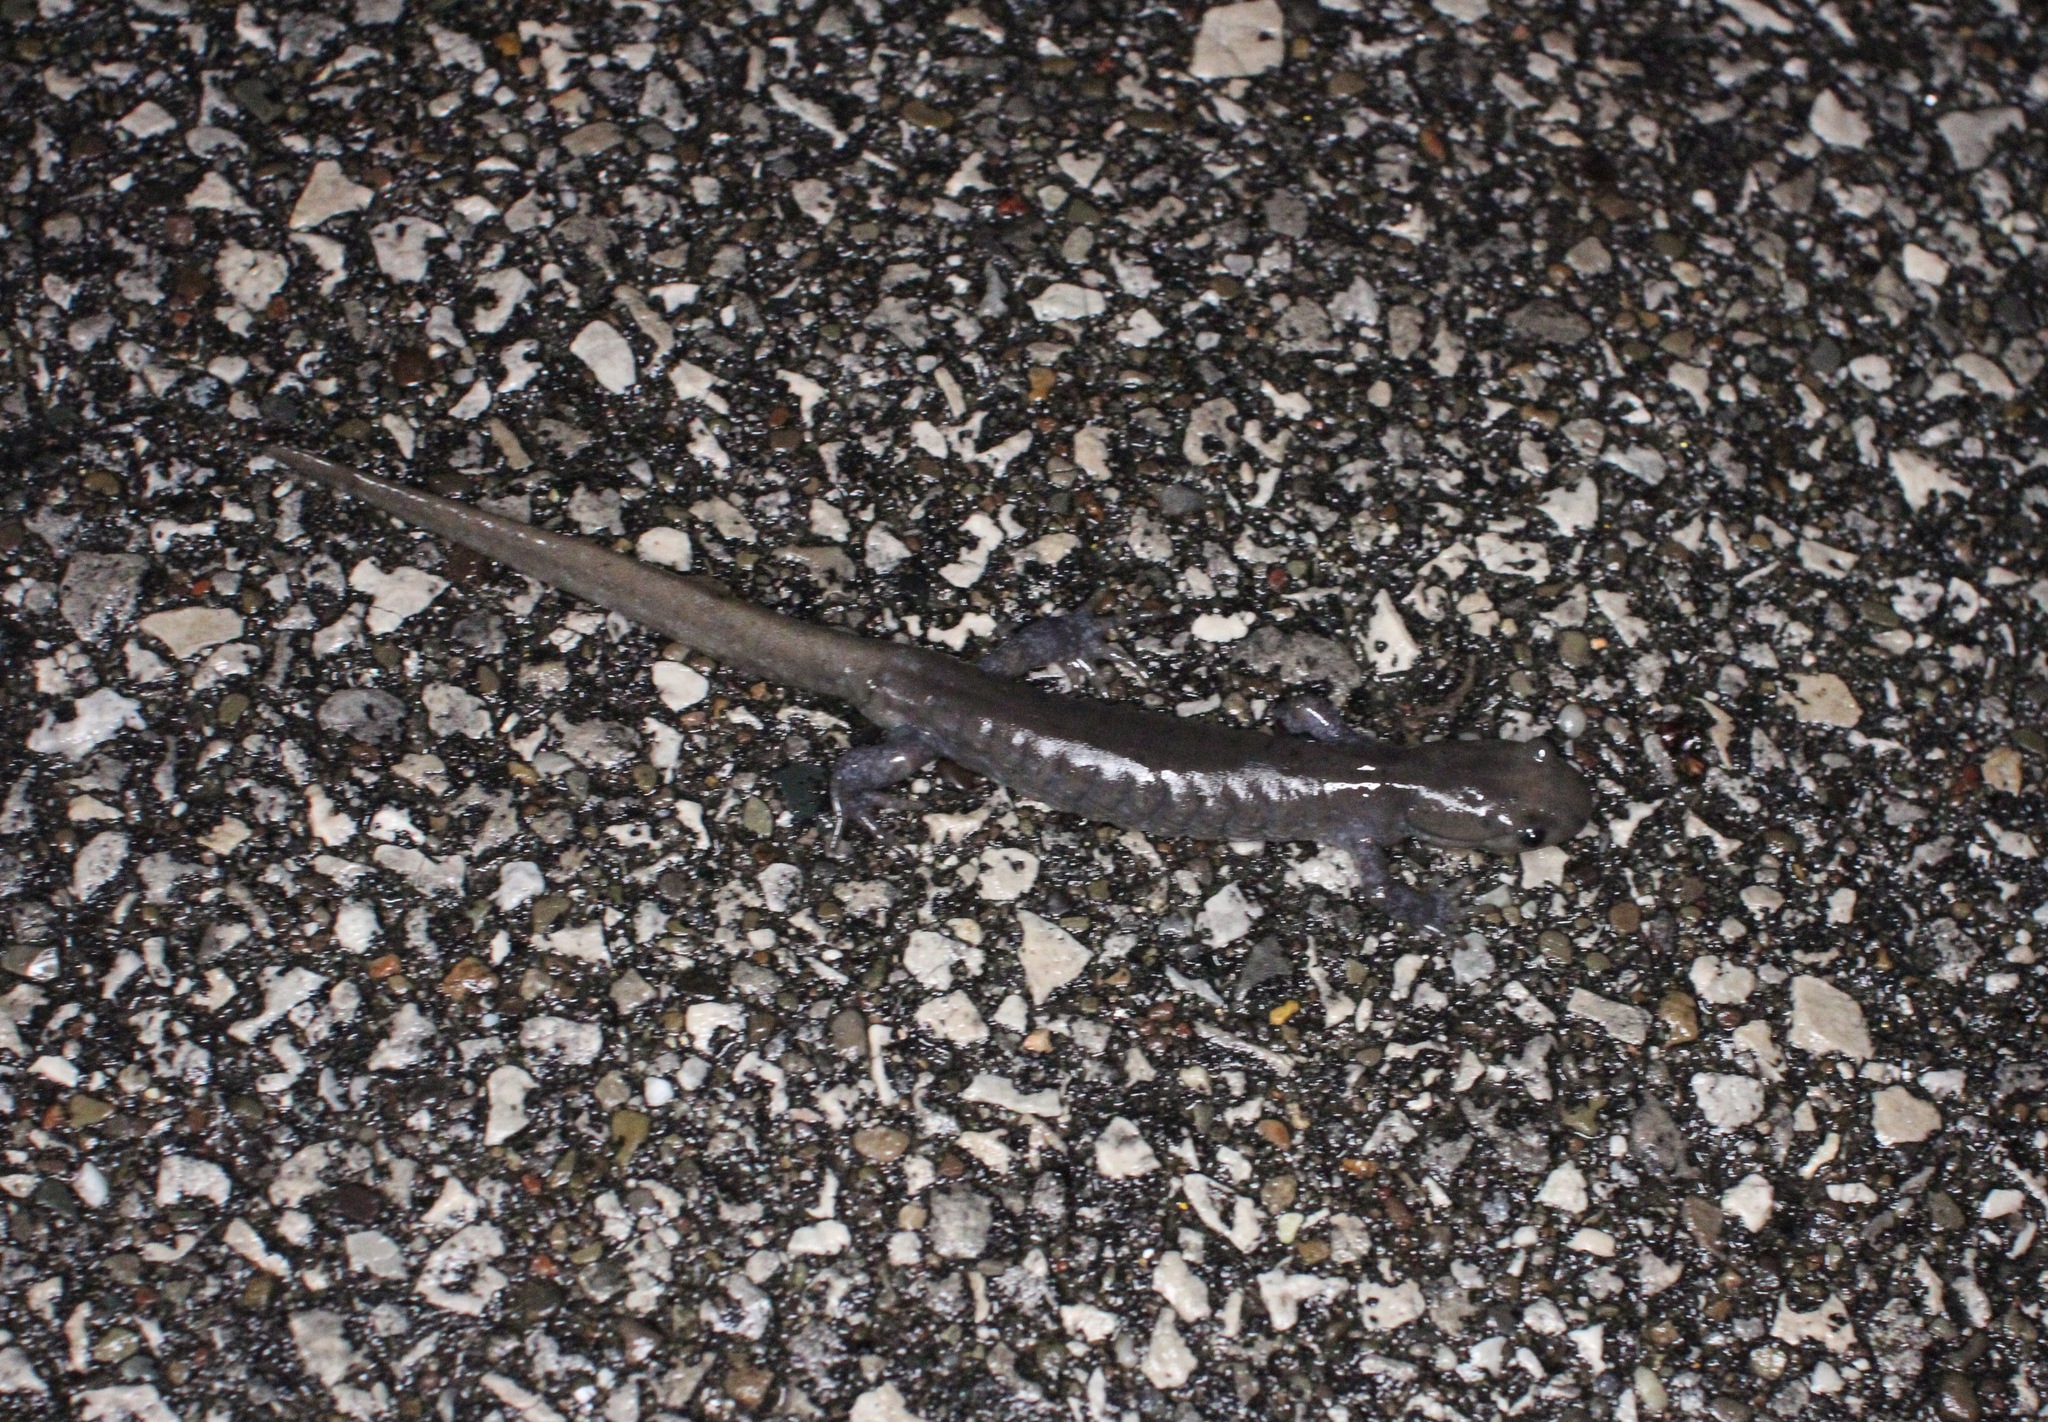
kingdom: Animalia
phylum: Chordata
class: Amphibia
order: Caudata
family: Ambystomatidae
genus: Ambystoma
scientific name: Ambystoma jeffersonianum
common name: Jefferson salamander
